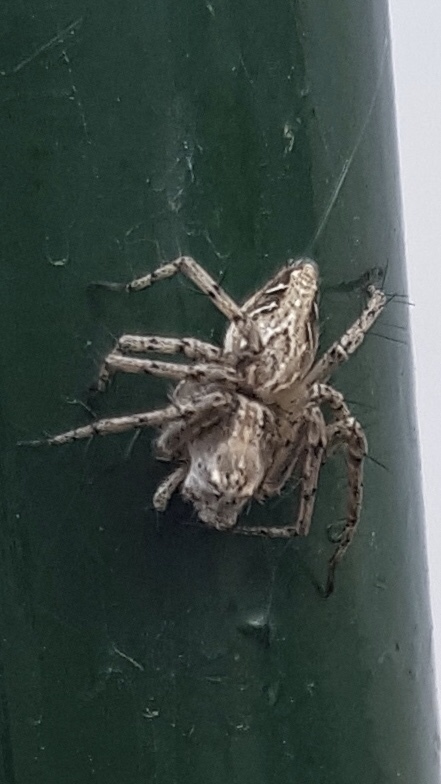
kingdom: Animalia
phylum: Arthropoda
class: Arachnida
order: Araneae
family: Oxyopidae
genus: Oxyopes
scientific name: Oxyopes heterophthalmus
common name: Lynx spider
